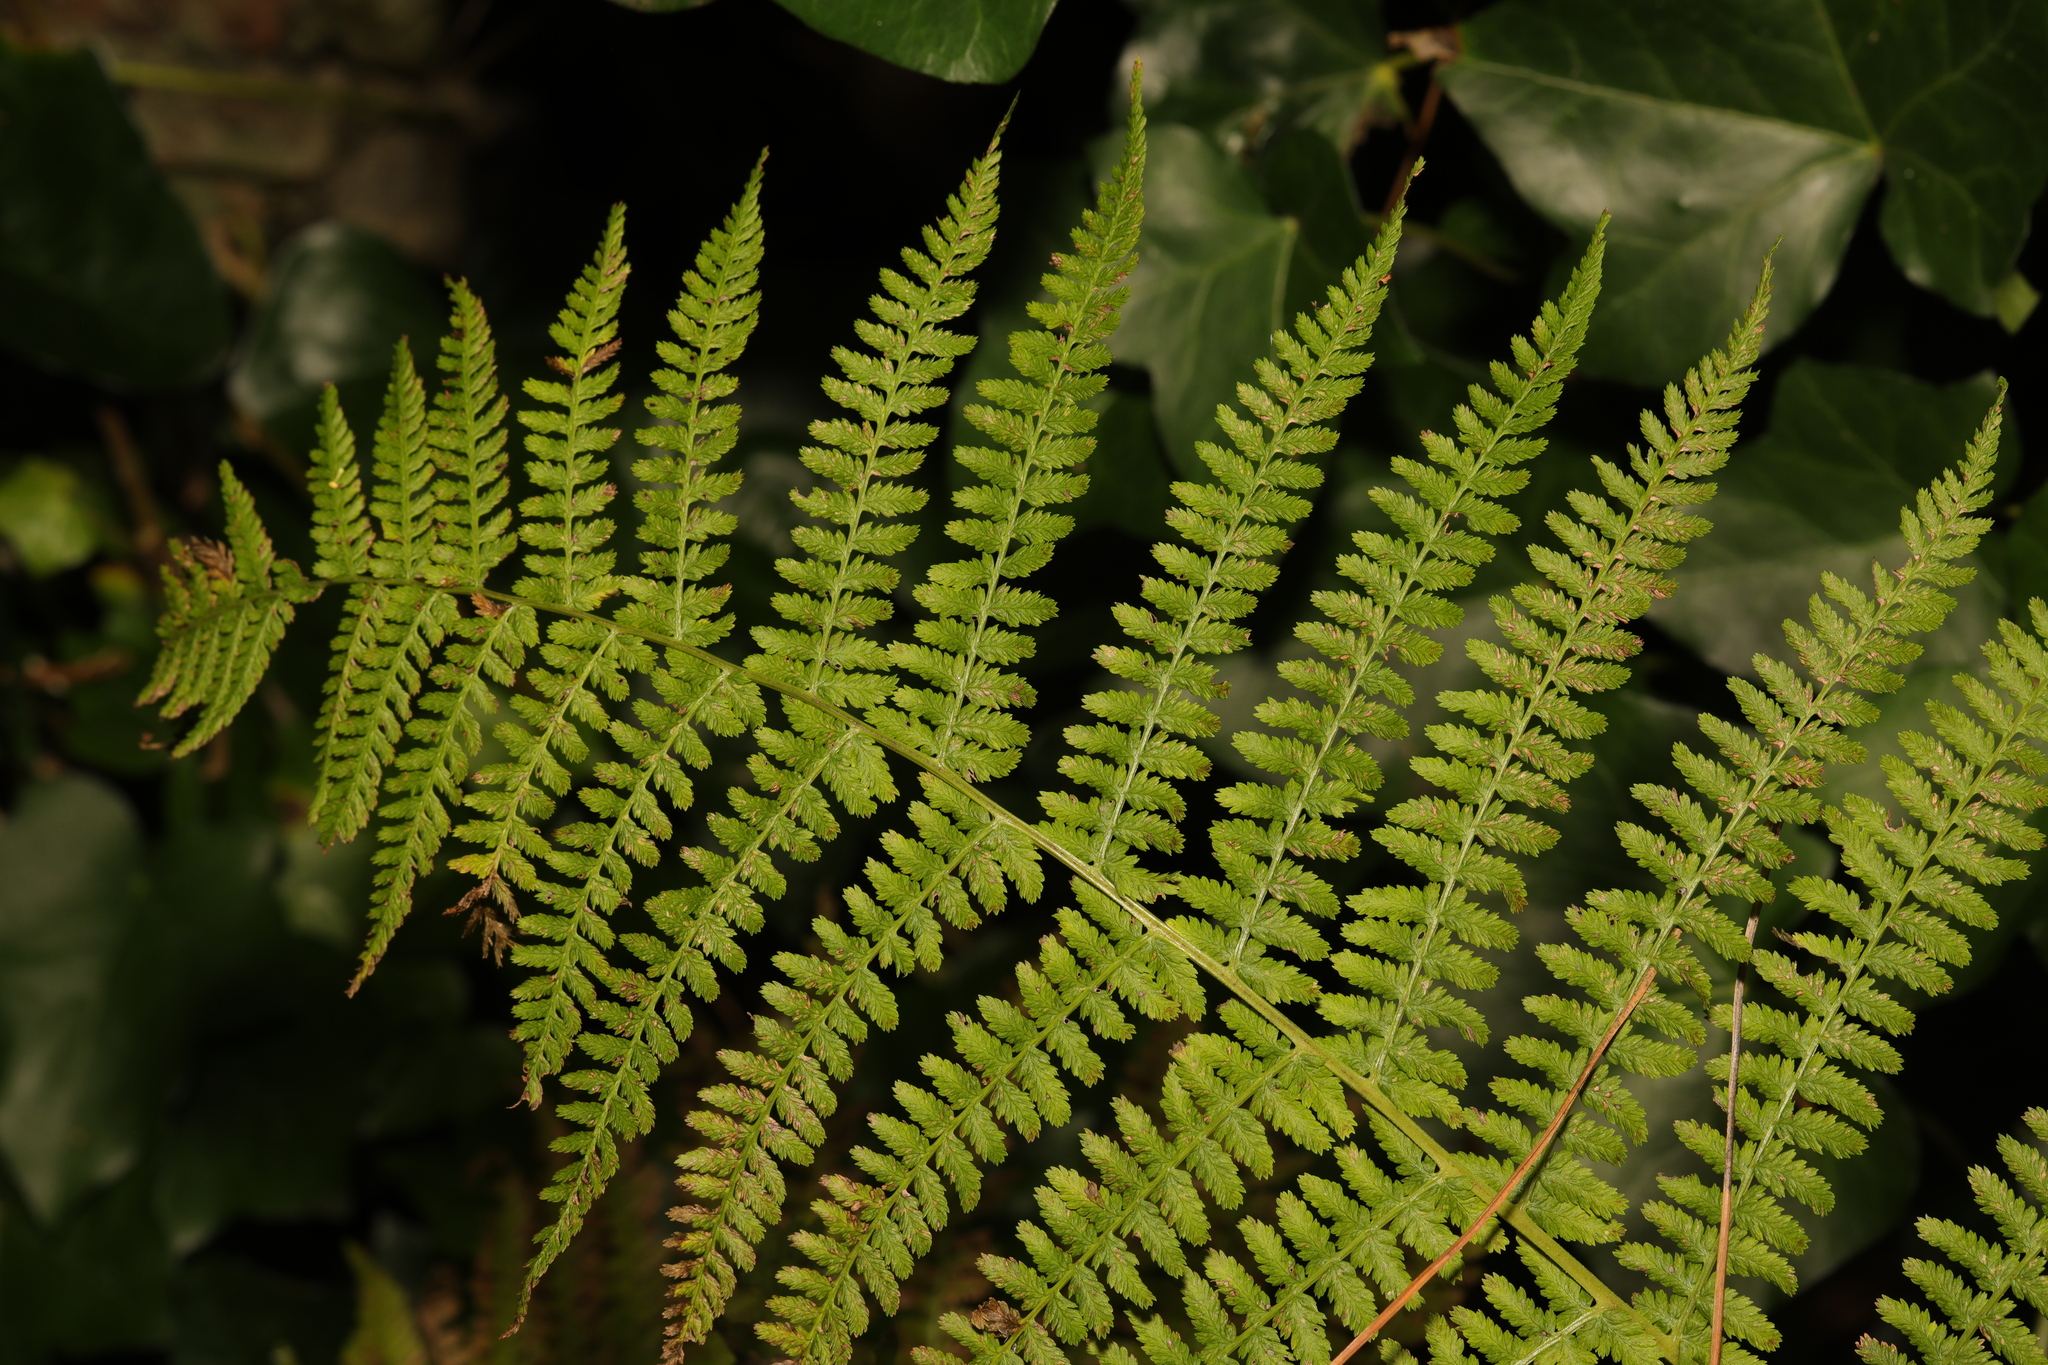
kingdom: Plantae
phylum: Tracheophyta
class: Polypodiopsida
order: Polypodiales
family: Athyriaceae
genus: Athyrium
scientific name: Athyrium filix-femina
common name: Lady fern
